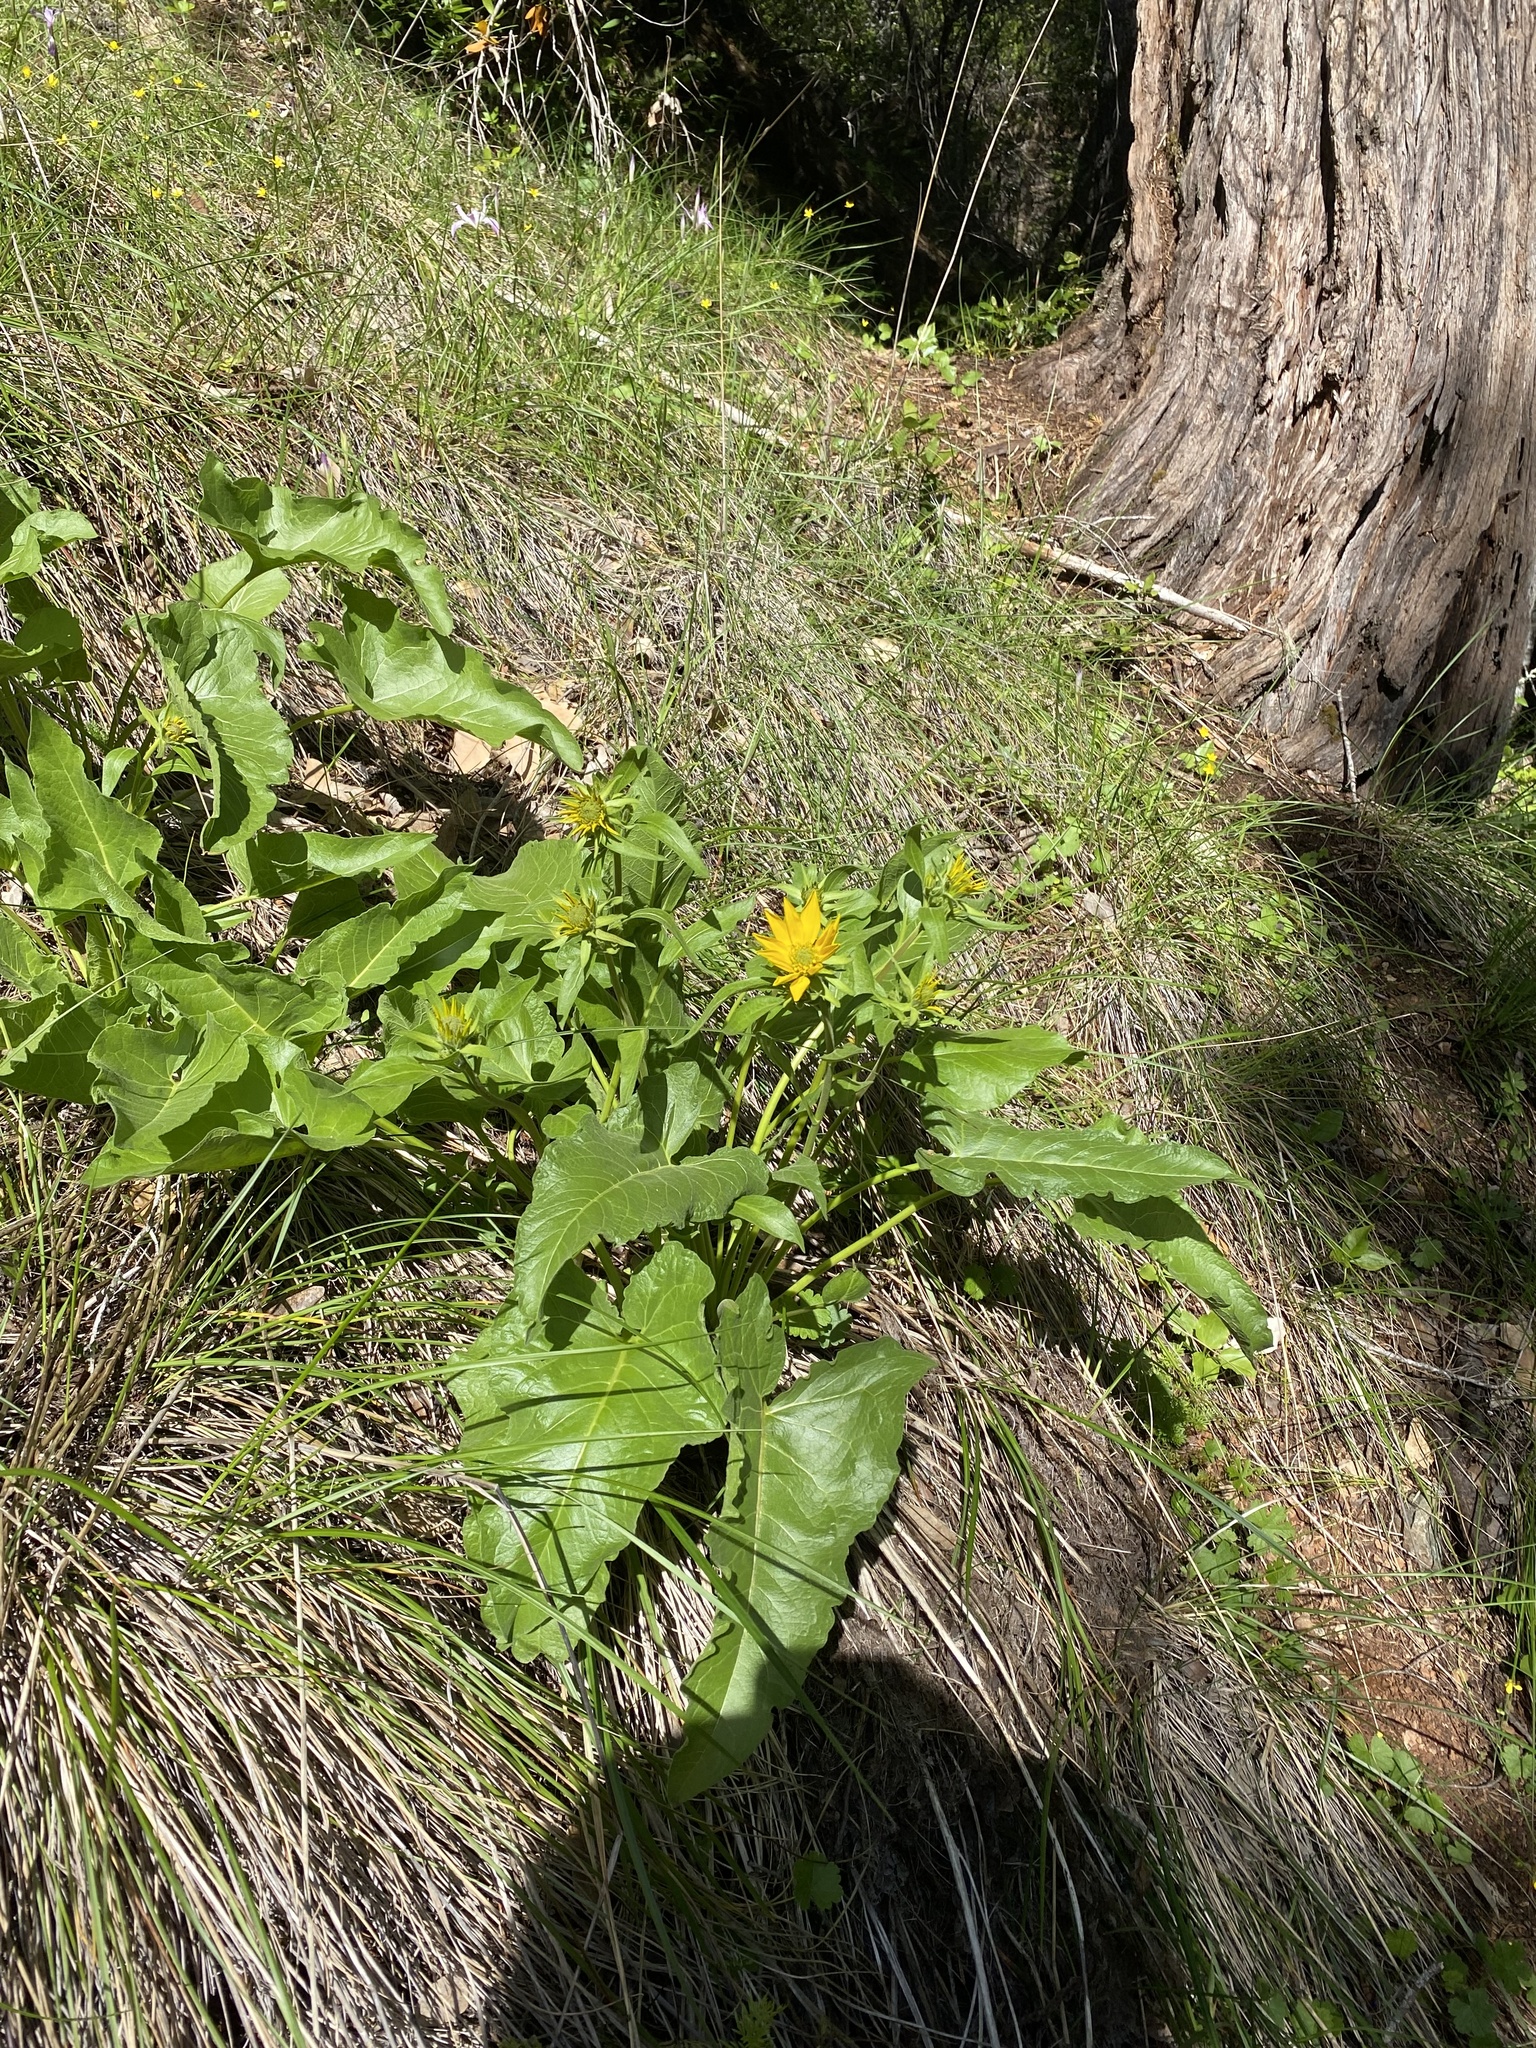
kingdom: Plantae
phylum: Tracheophyta
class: Magnoliopsida
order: Asterales
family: Asteraceae
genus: Balsamorhiza
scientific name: Balsamorhiza deltoidea
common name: Deltoid balsamroot
